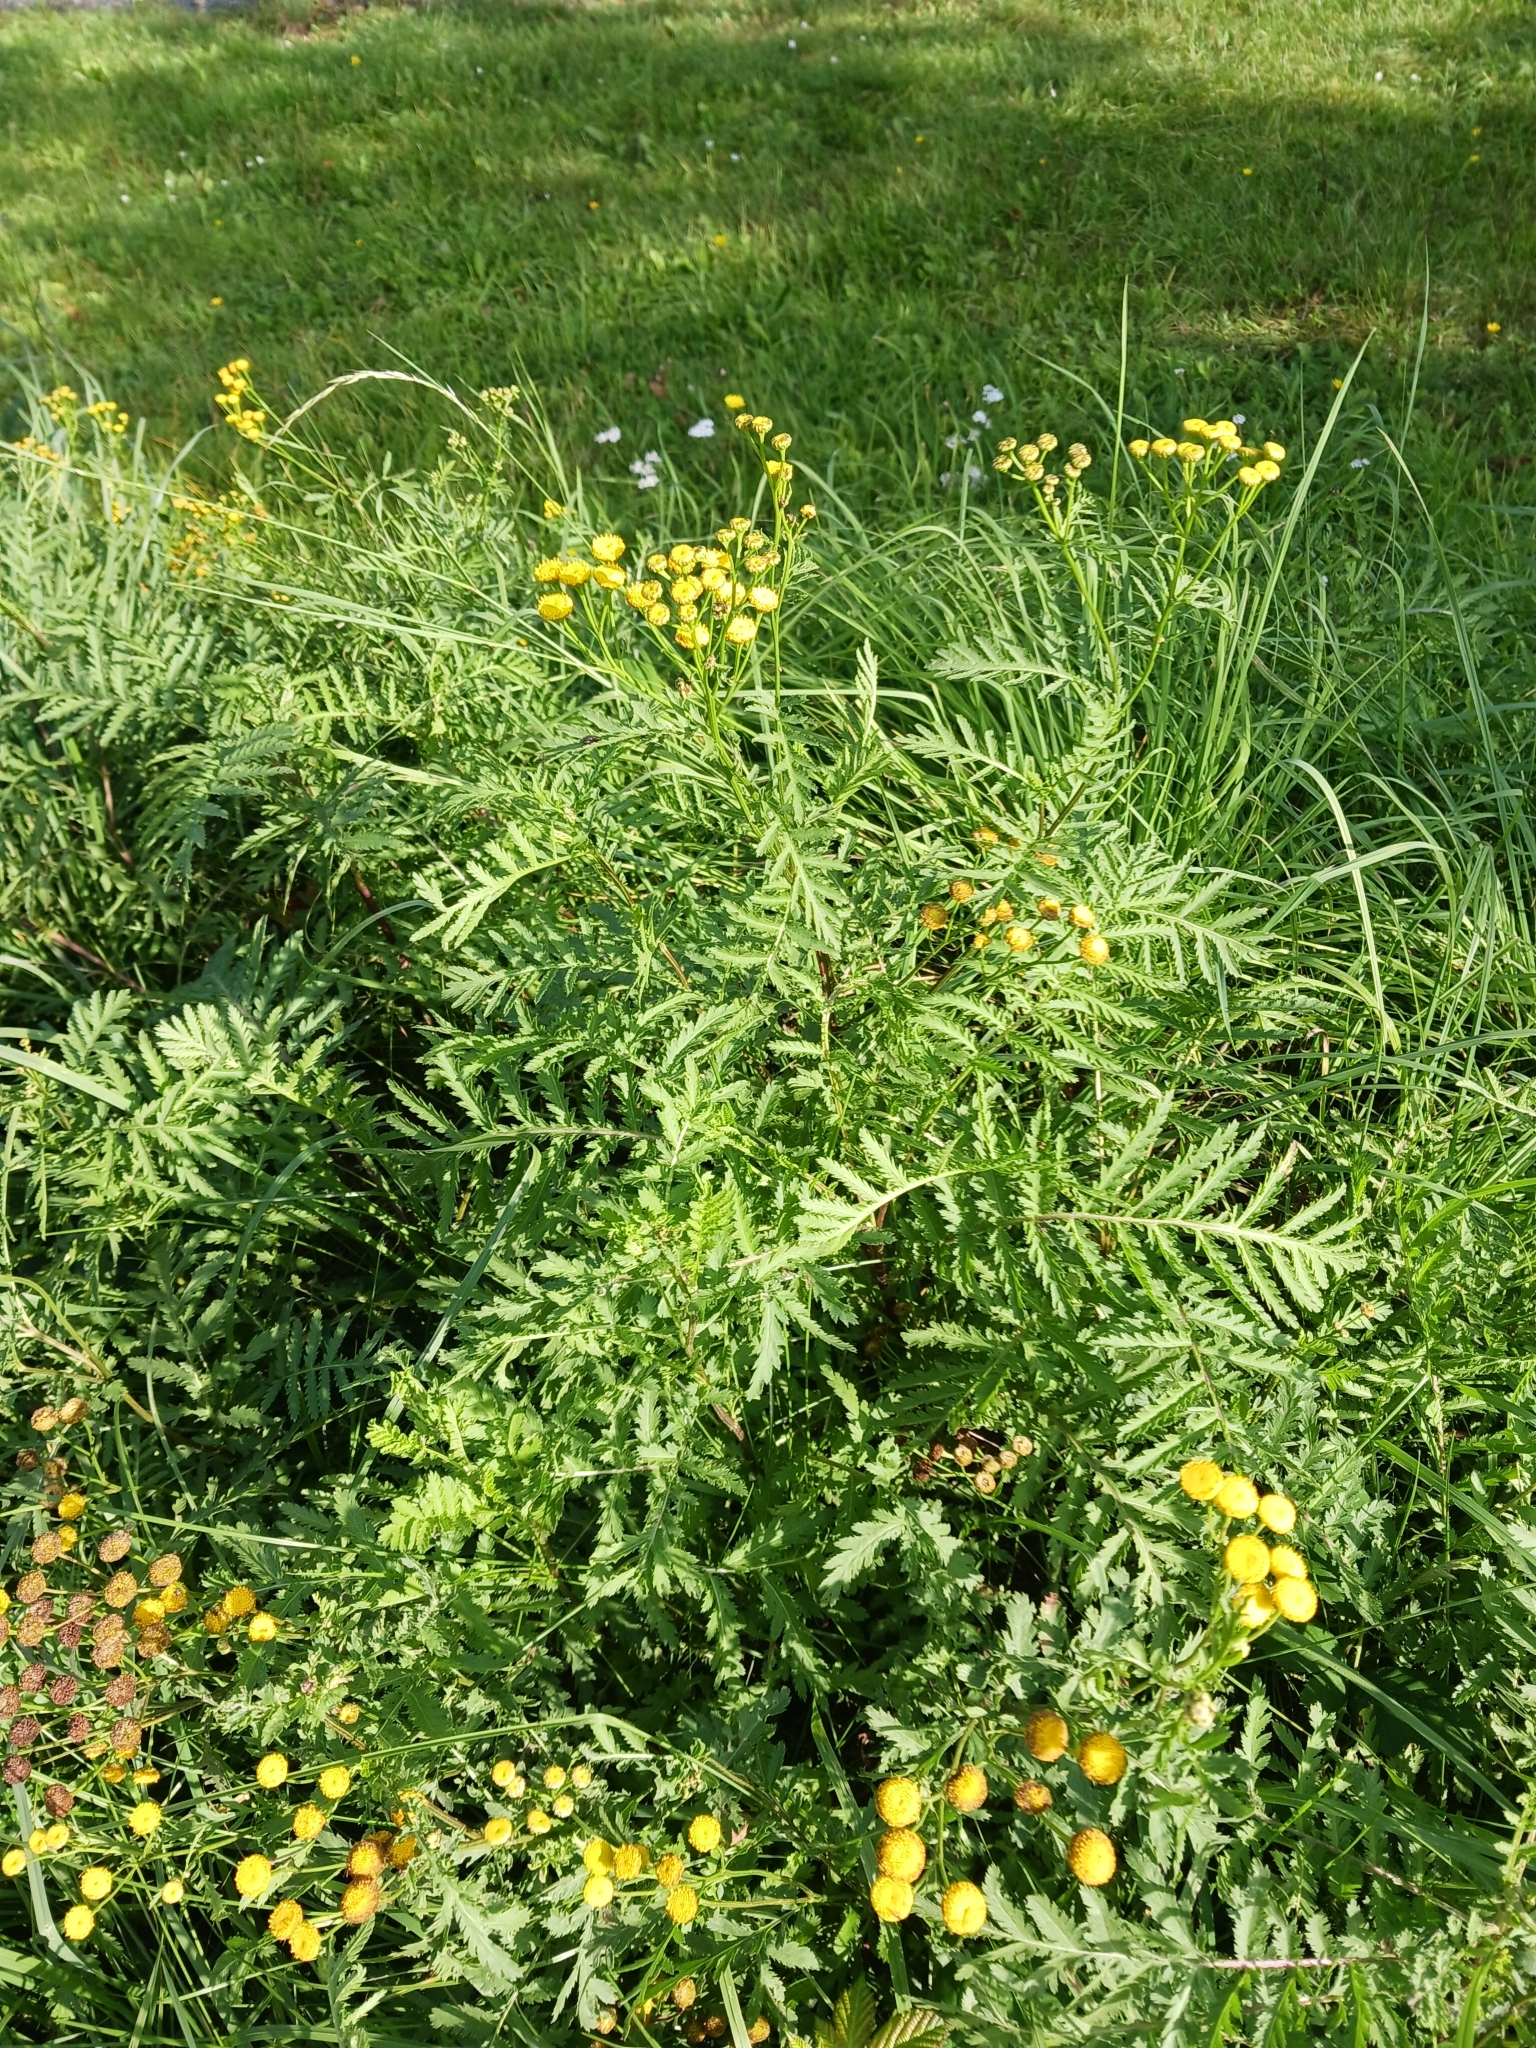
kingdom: Plantae
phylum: Tracheophyta
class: Magnoliopsida
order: Asterales
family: Asteraceae
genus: Tanacetum
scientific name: Tanacetum vulgare
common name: Common tansy
